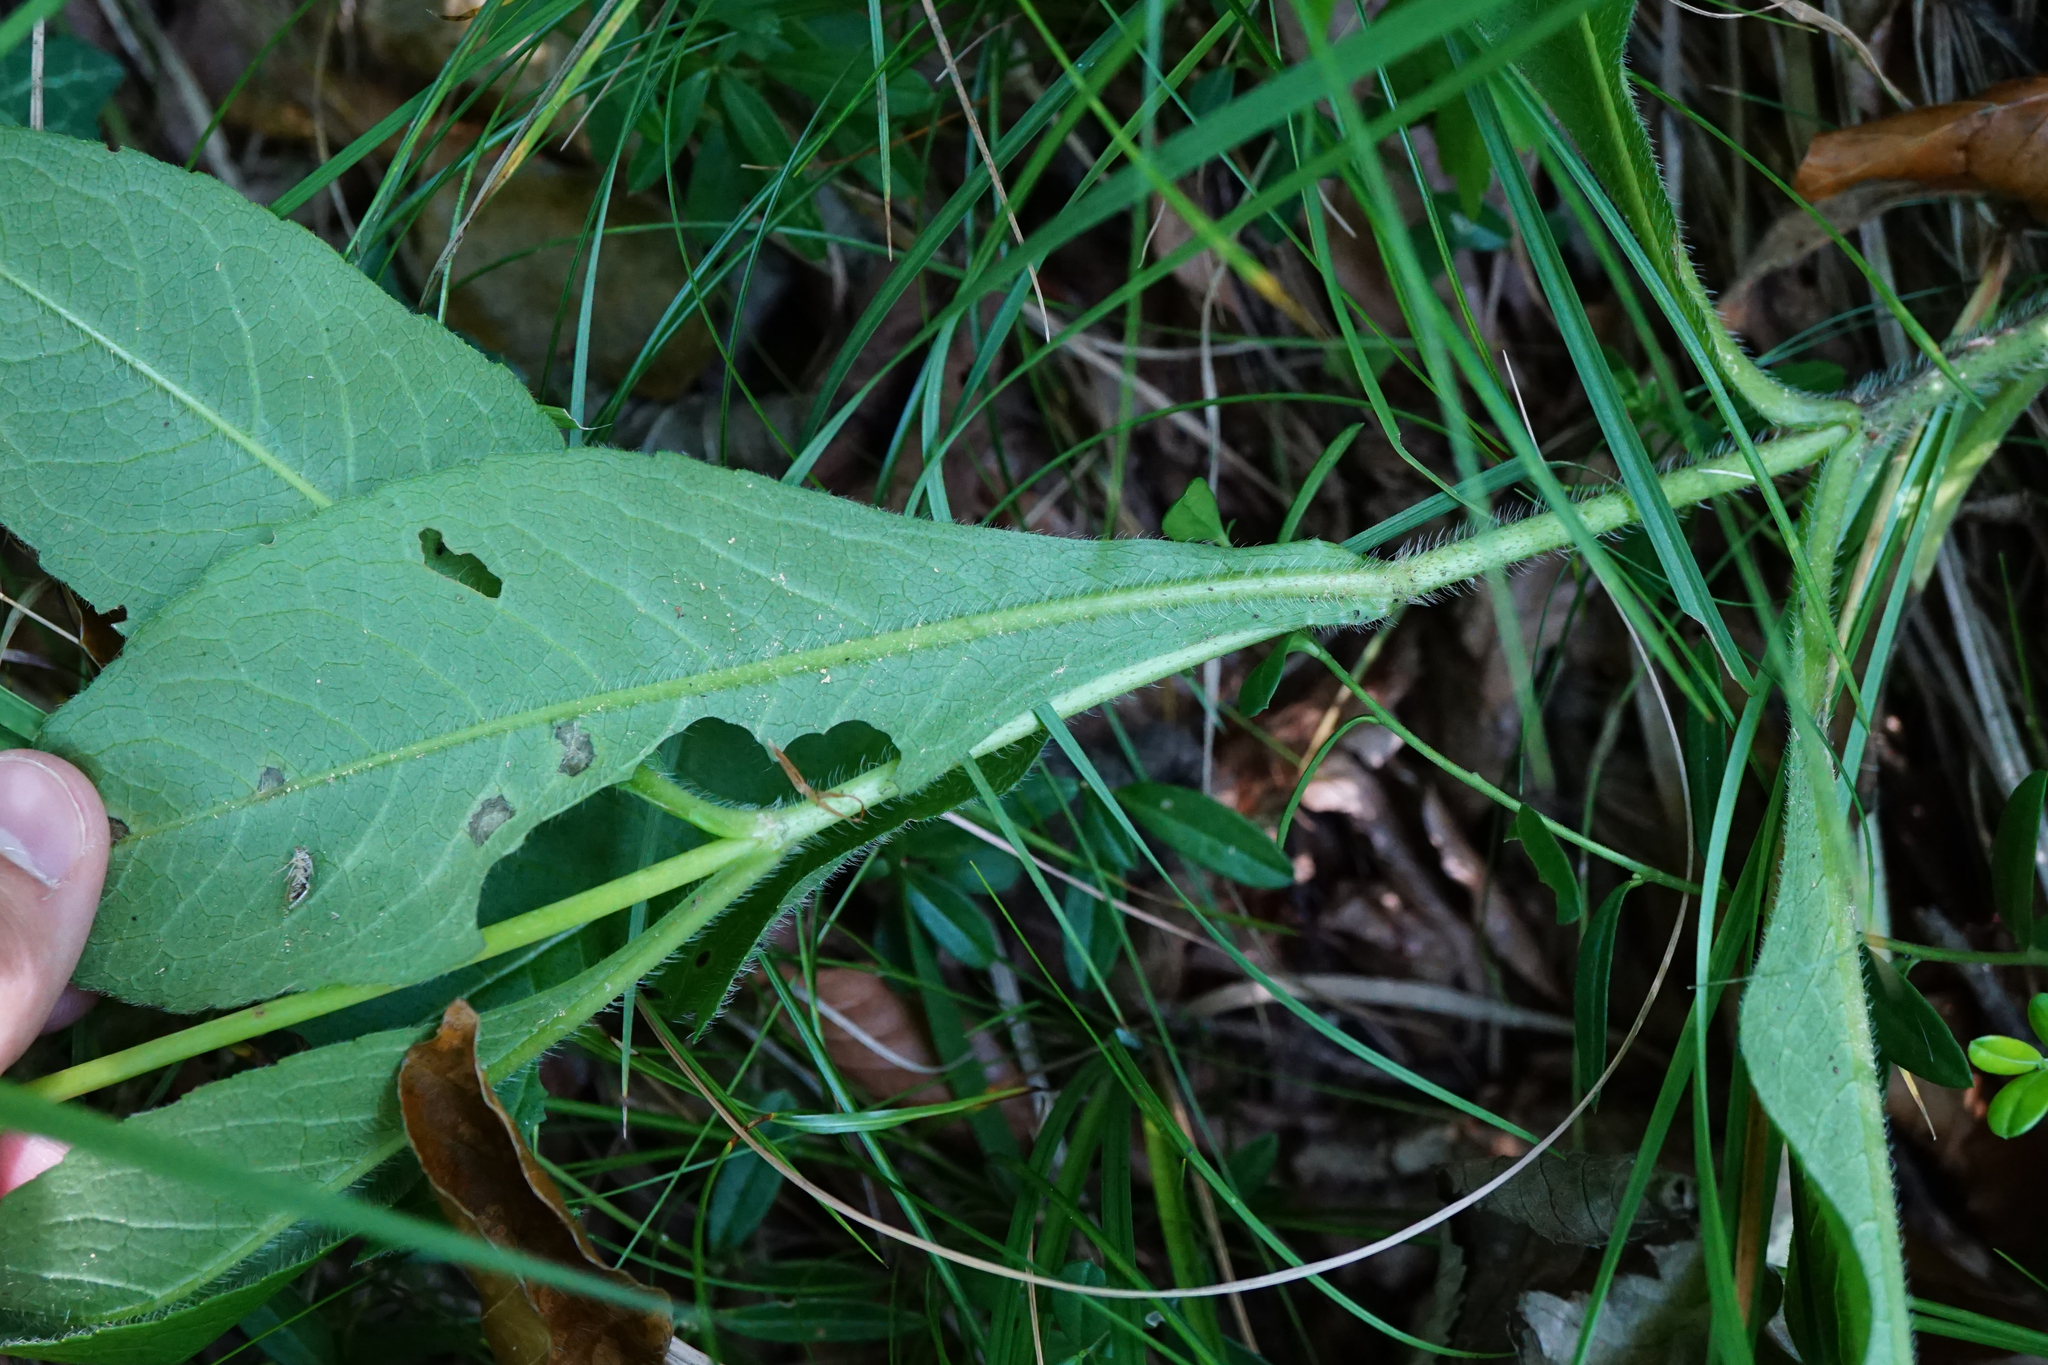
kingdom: Plantae
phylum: Tracheophyta
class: Magnoliopsida
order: Dipsacales
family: Caprifoliaceae
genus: Knautia
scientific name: Knautia dipsacifolia
